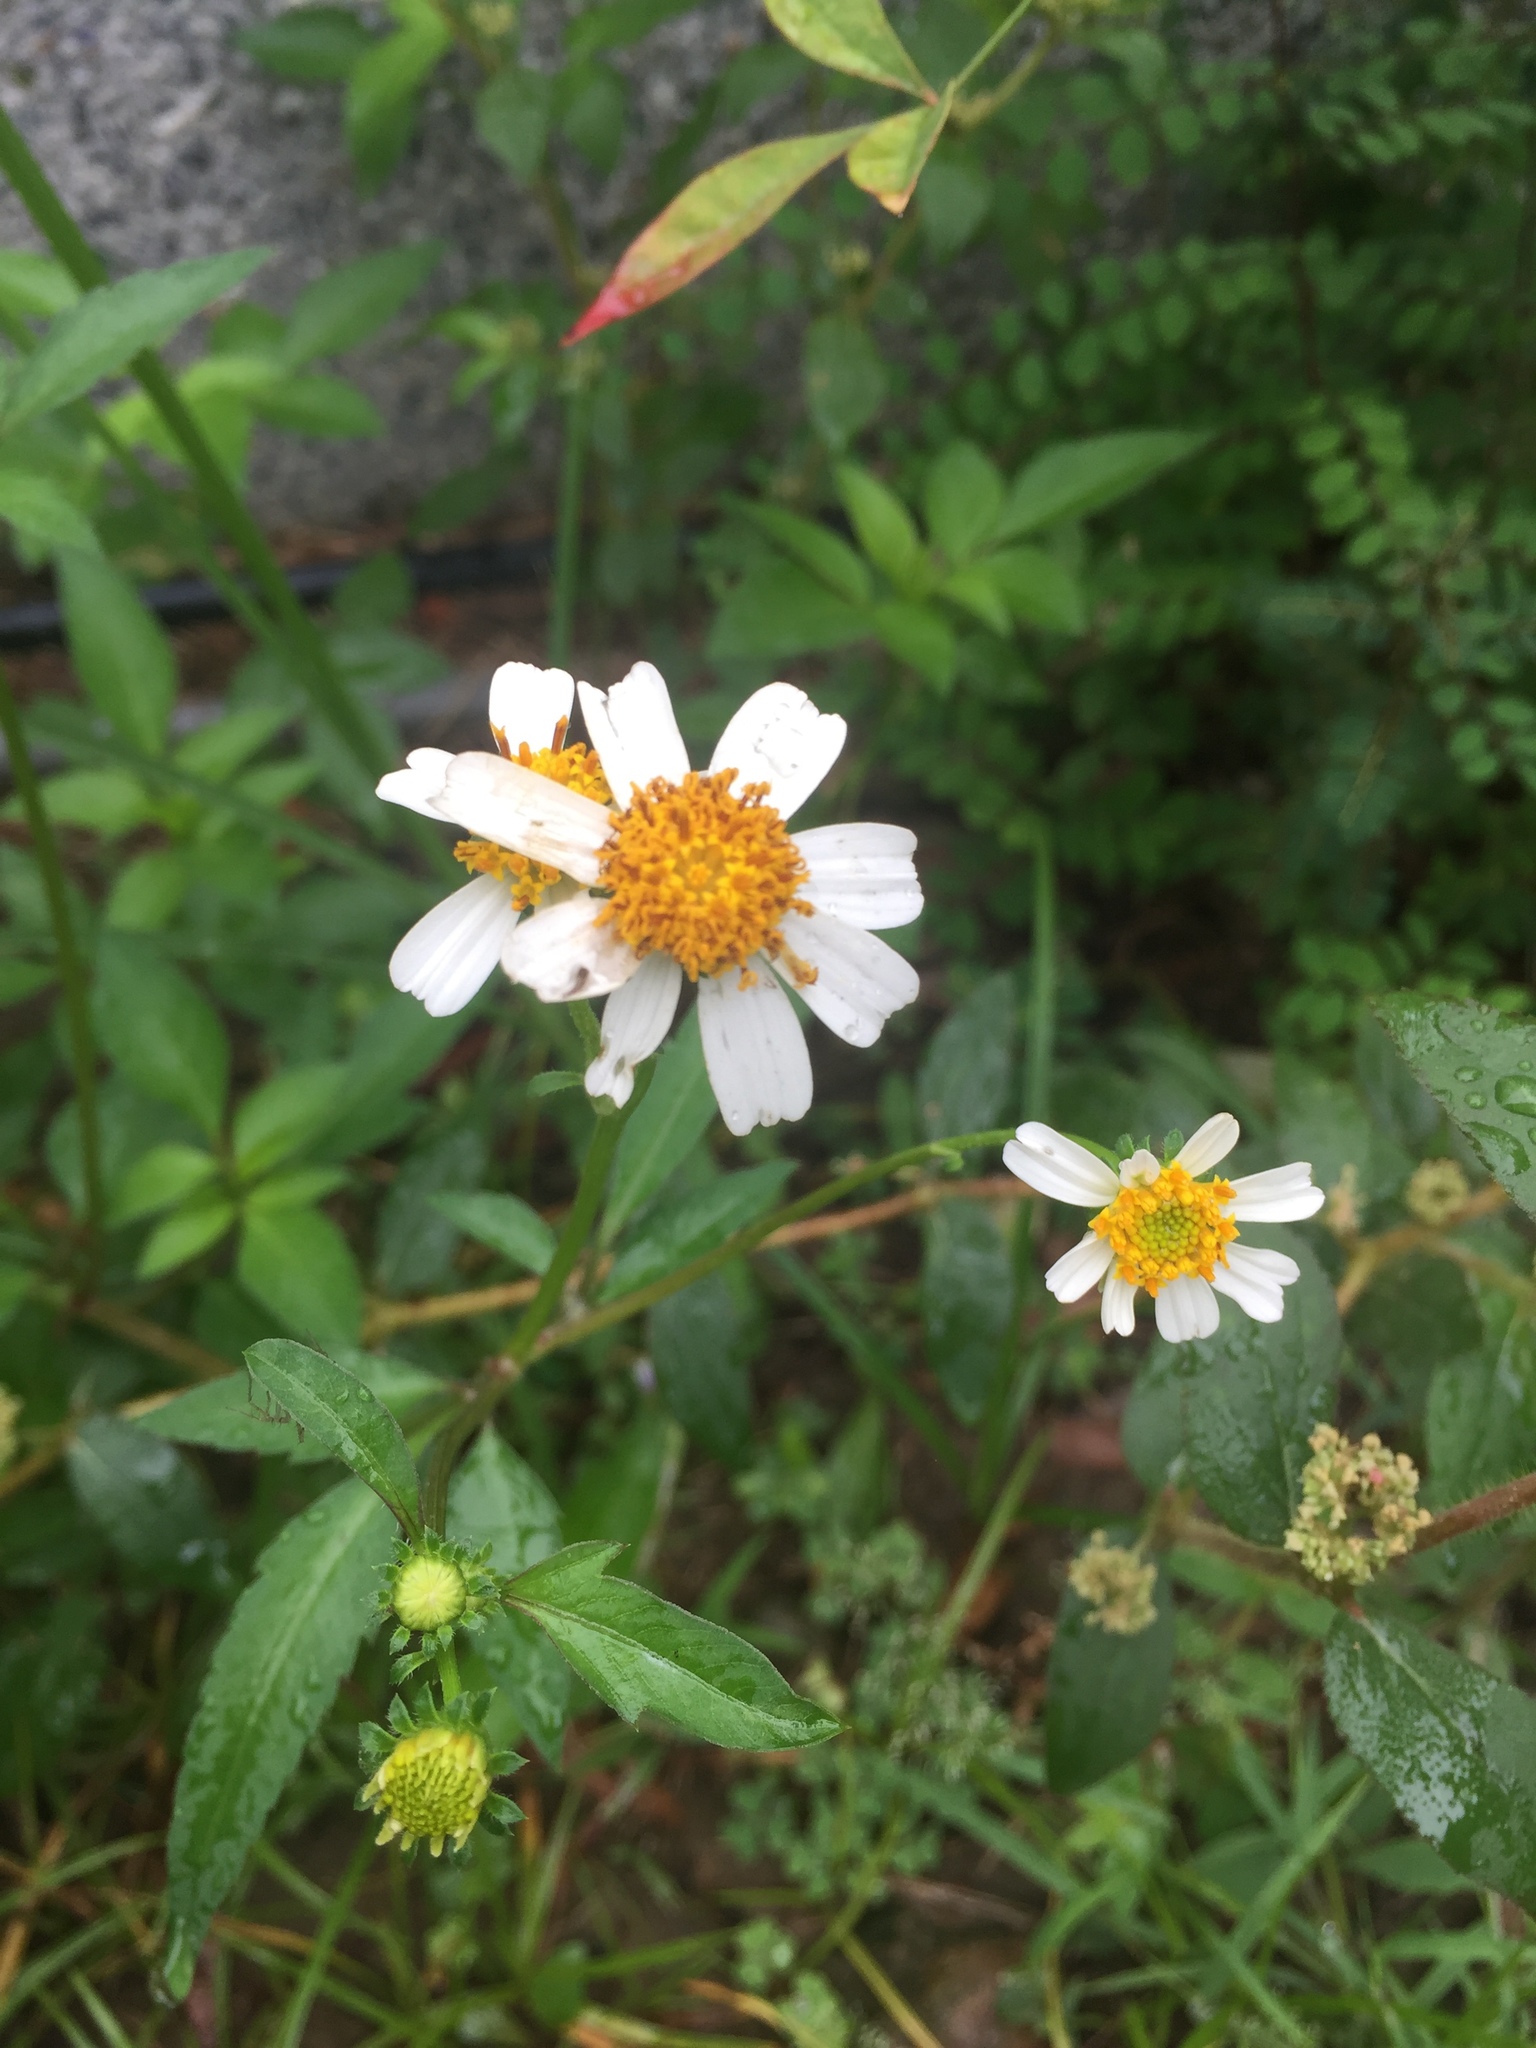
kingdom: Plantae
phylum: Tracheophyta
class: Magnoliopsida
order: Asterales
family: Asteraceae
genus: Bidens
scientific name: Bidens alba
